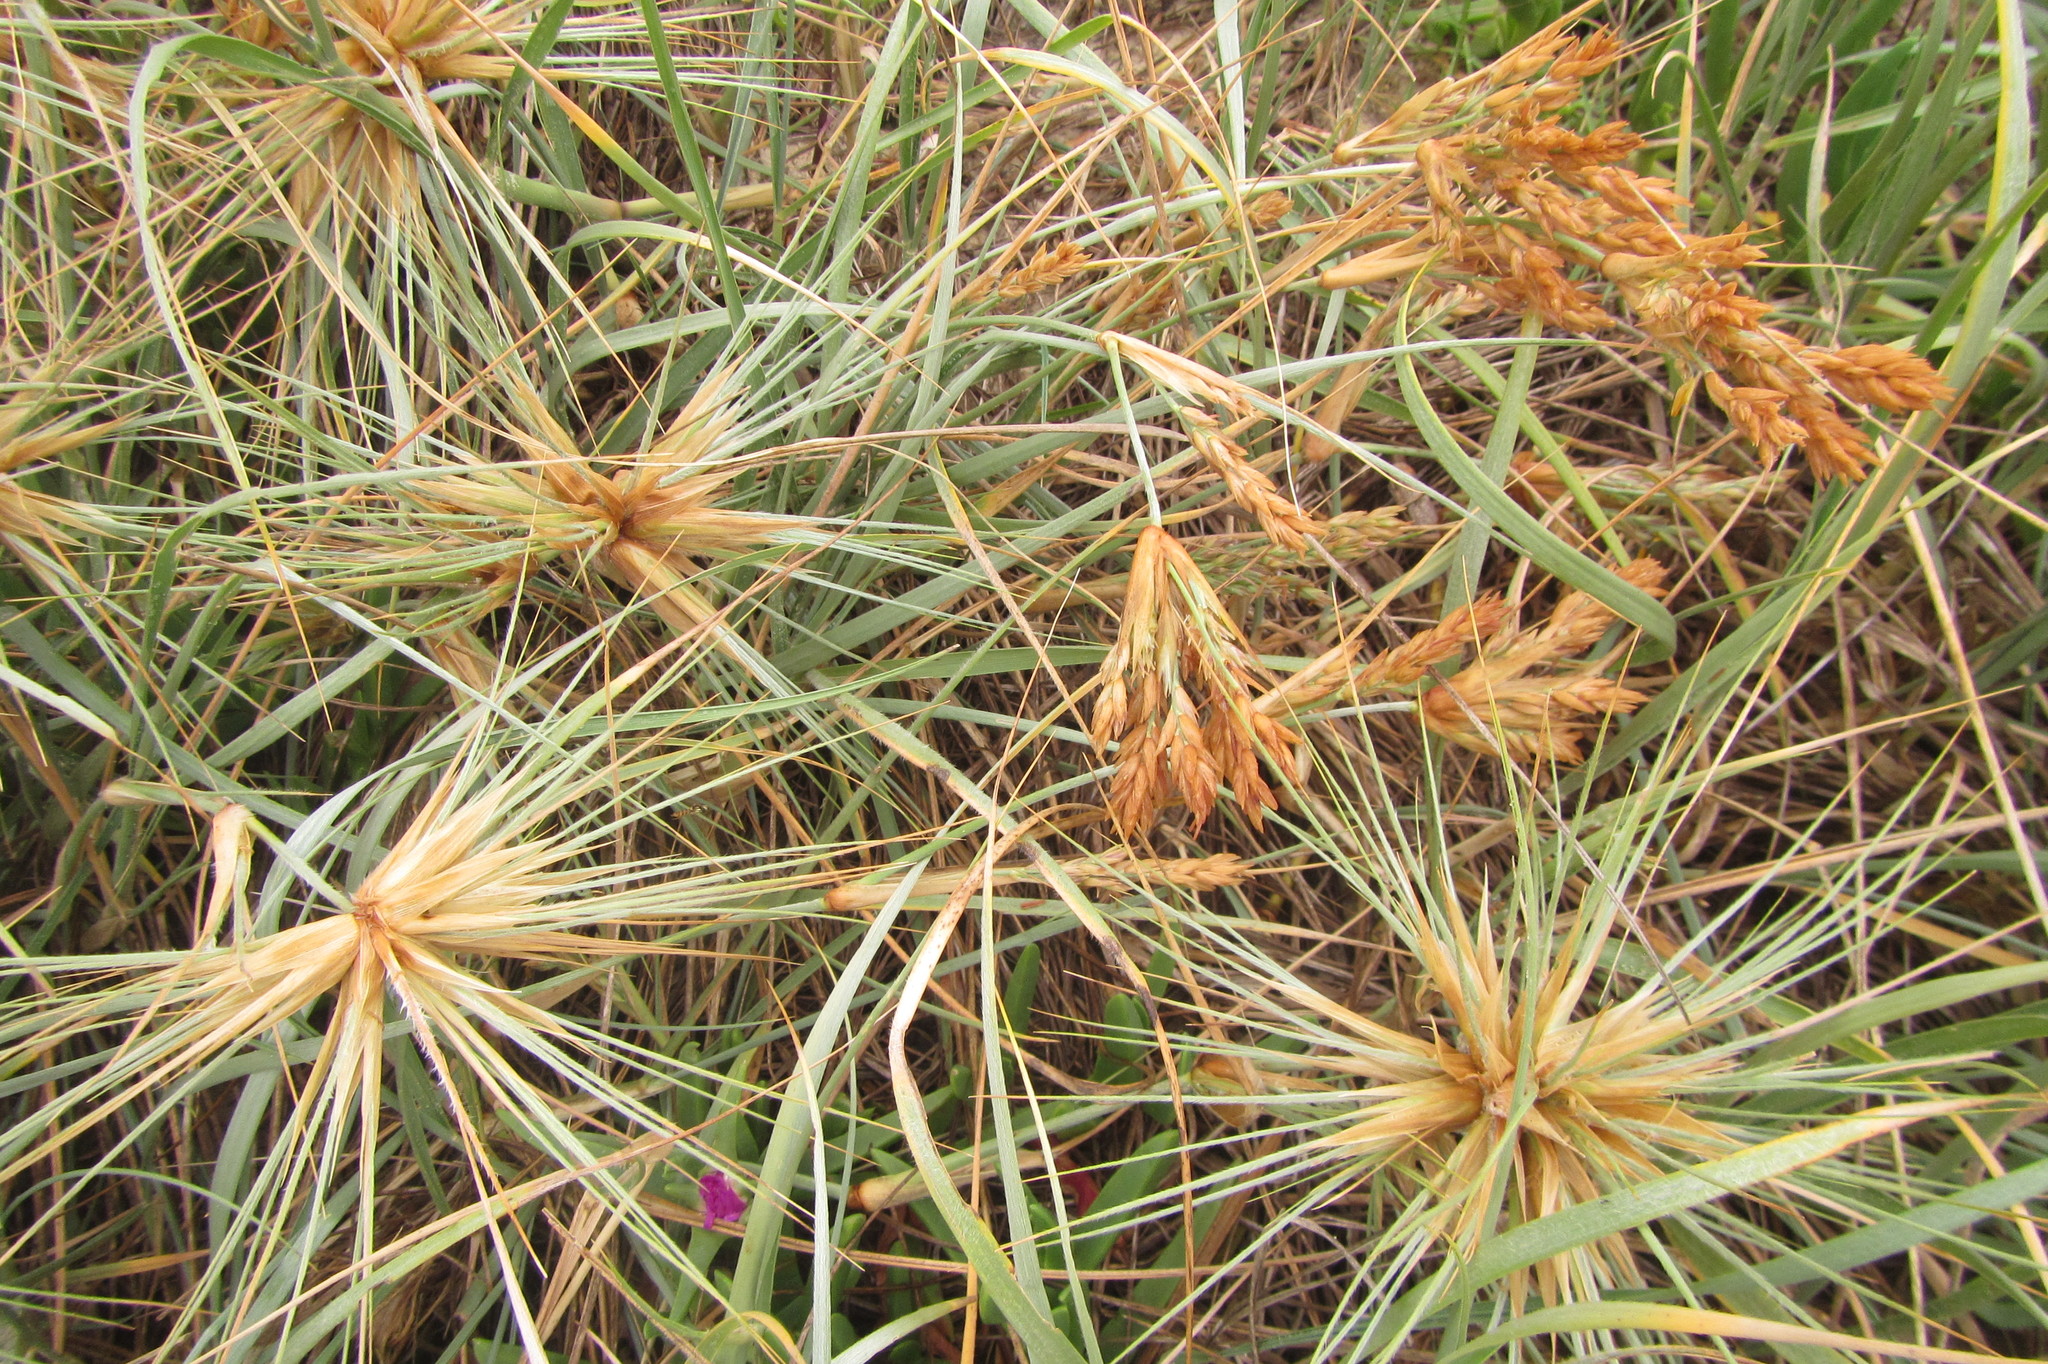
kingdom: Plantae
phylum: Tracheophyta
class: Liliopsida
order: Poales
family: Poaceae
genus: Spinifex
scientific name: Spinifex sericeus
